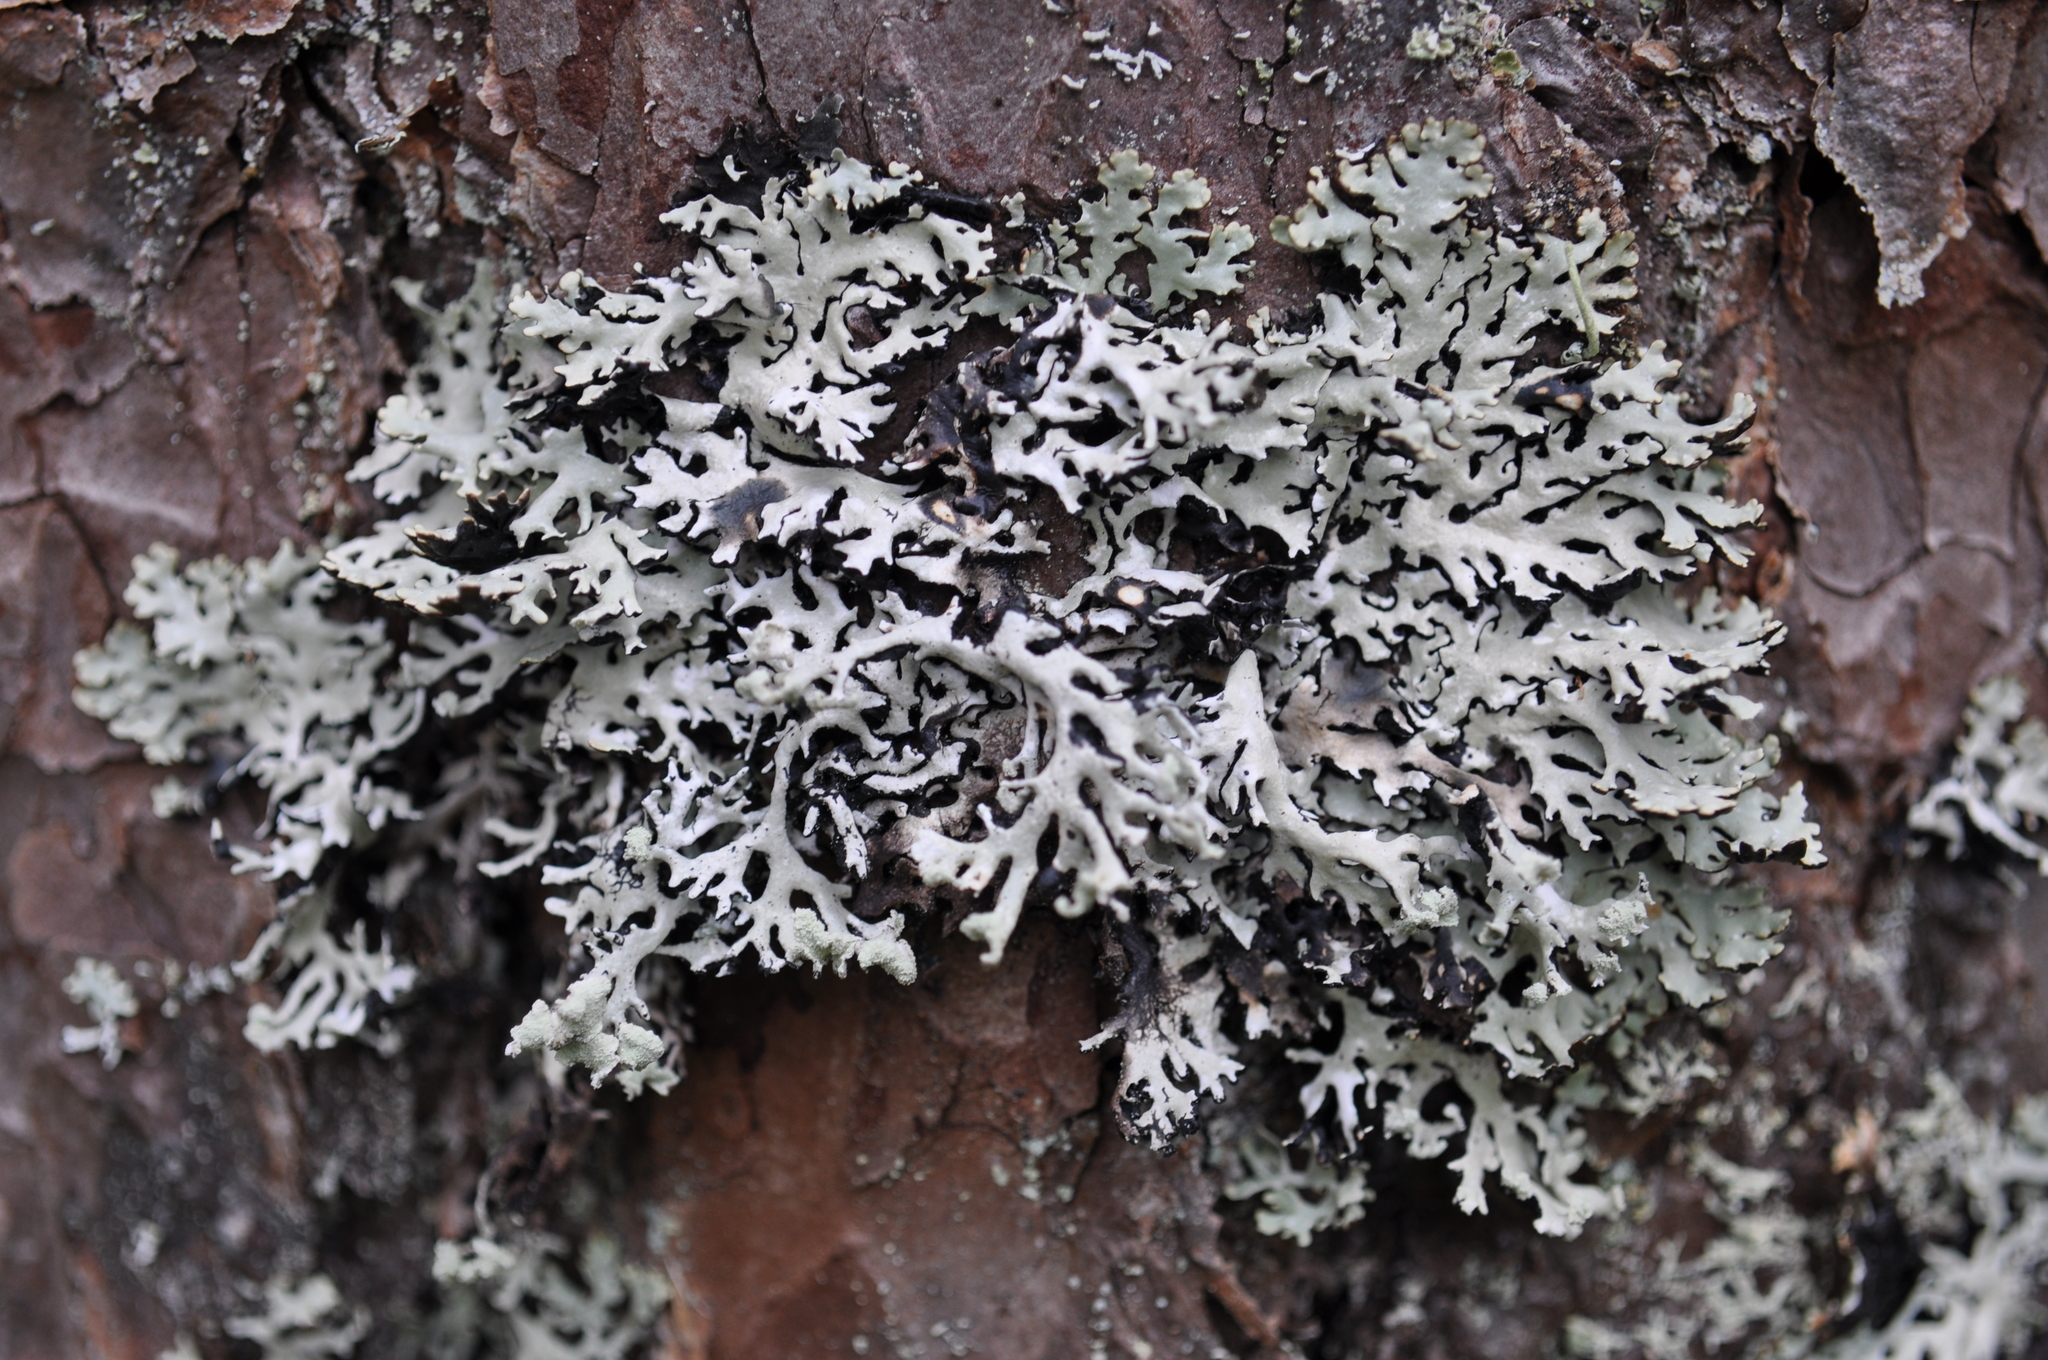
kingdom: Fungi
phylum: Ascomycota
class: Lecanoromycetes
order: Lecanorales
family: Parmeliaceae
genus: Hypogymnia
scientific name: Hypogymnia physodes
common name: Dark crottle
